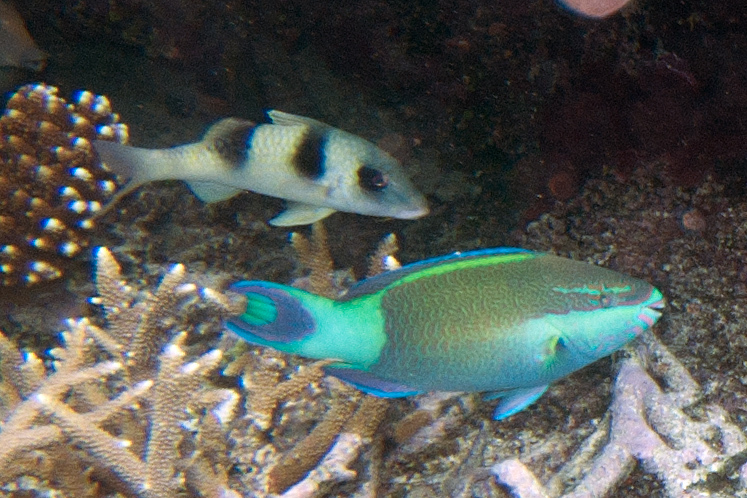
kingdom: Animalia
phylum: Chordata
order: Perciformes
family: Scaridae
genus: Scarus
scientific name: Scarus frenatus
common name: Bridled parrotfish
